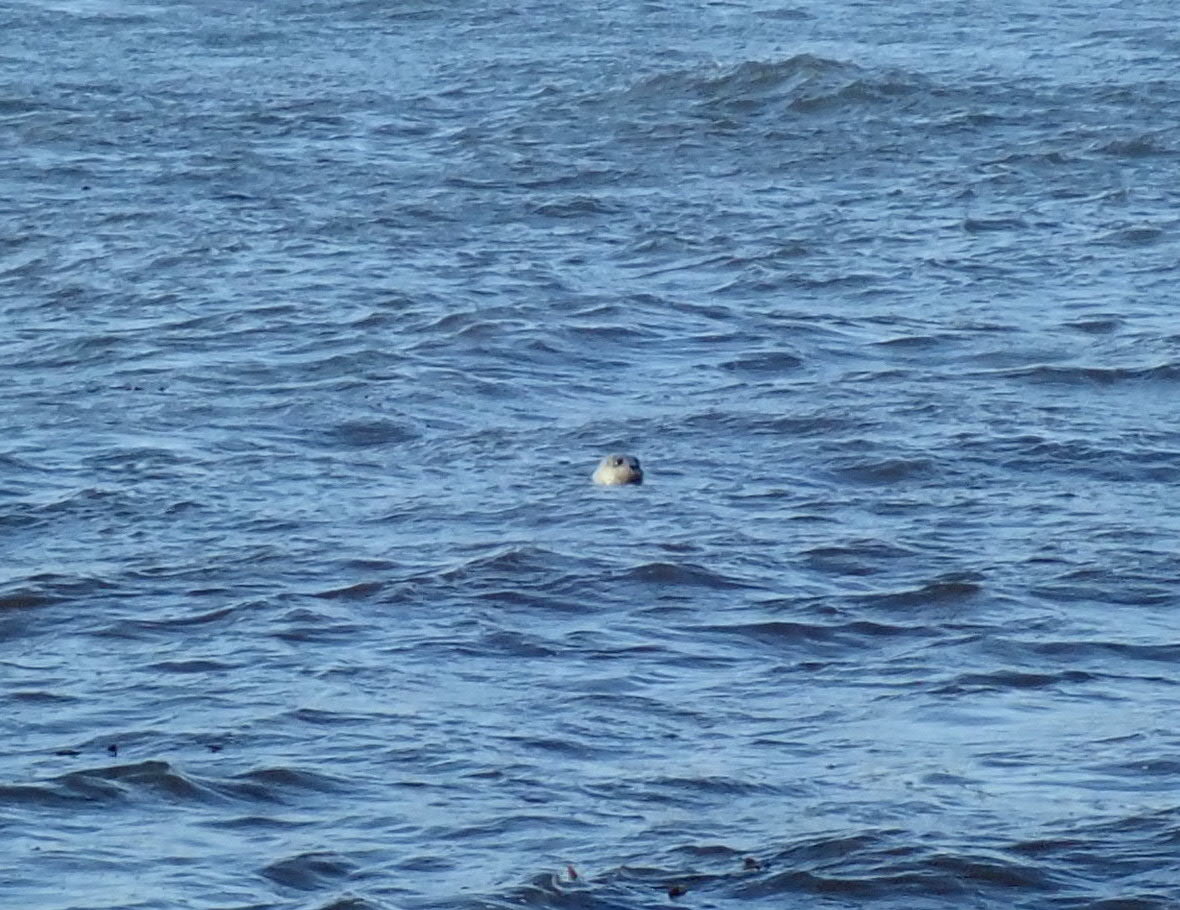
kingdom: Animalia
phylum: Chordata
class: Mammalia
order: Carnivora
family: Phocidae
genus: Phoca
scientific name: Phoca vitulina
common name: Harbor seal
